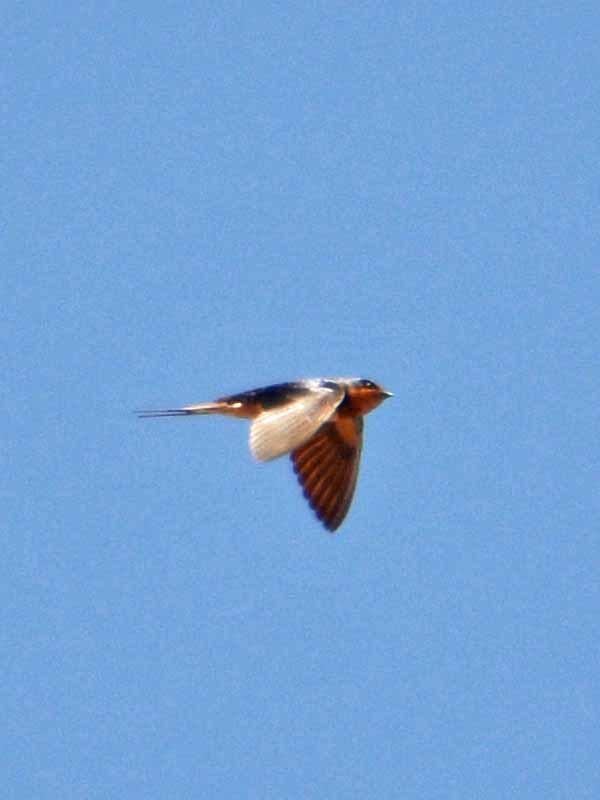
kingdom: Animalia
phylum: Chordata
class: Aves
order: Passeriformes
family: Hirundinidae
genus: Hirundo
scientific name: Hirundo rustica
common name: Barn swallow
